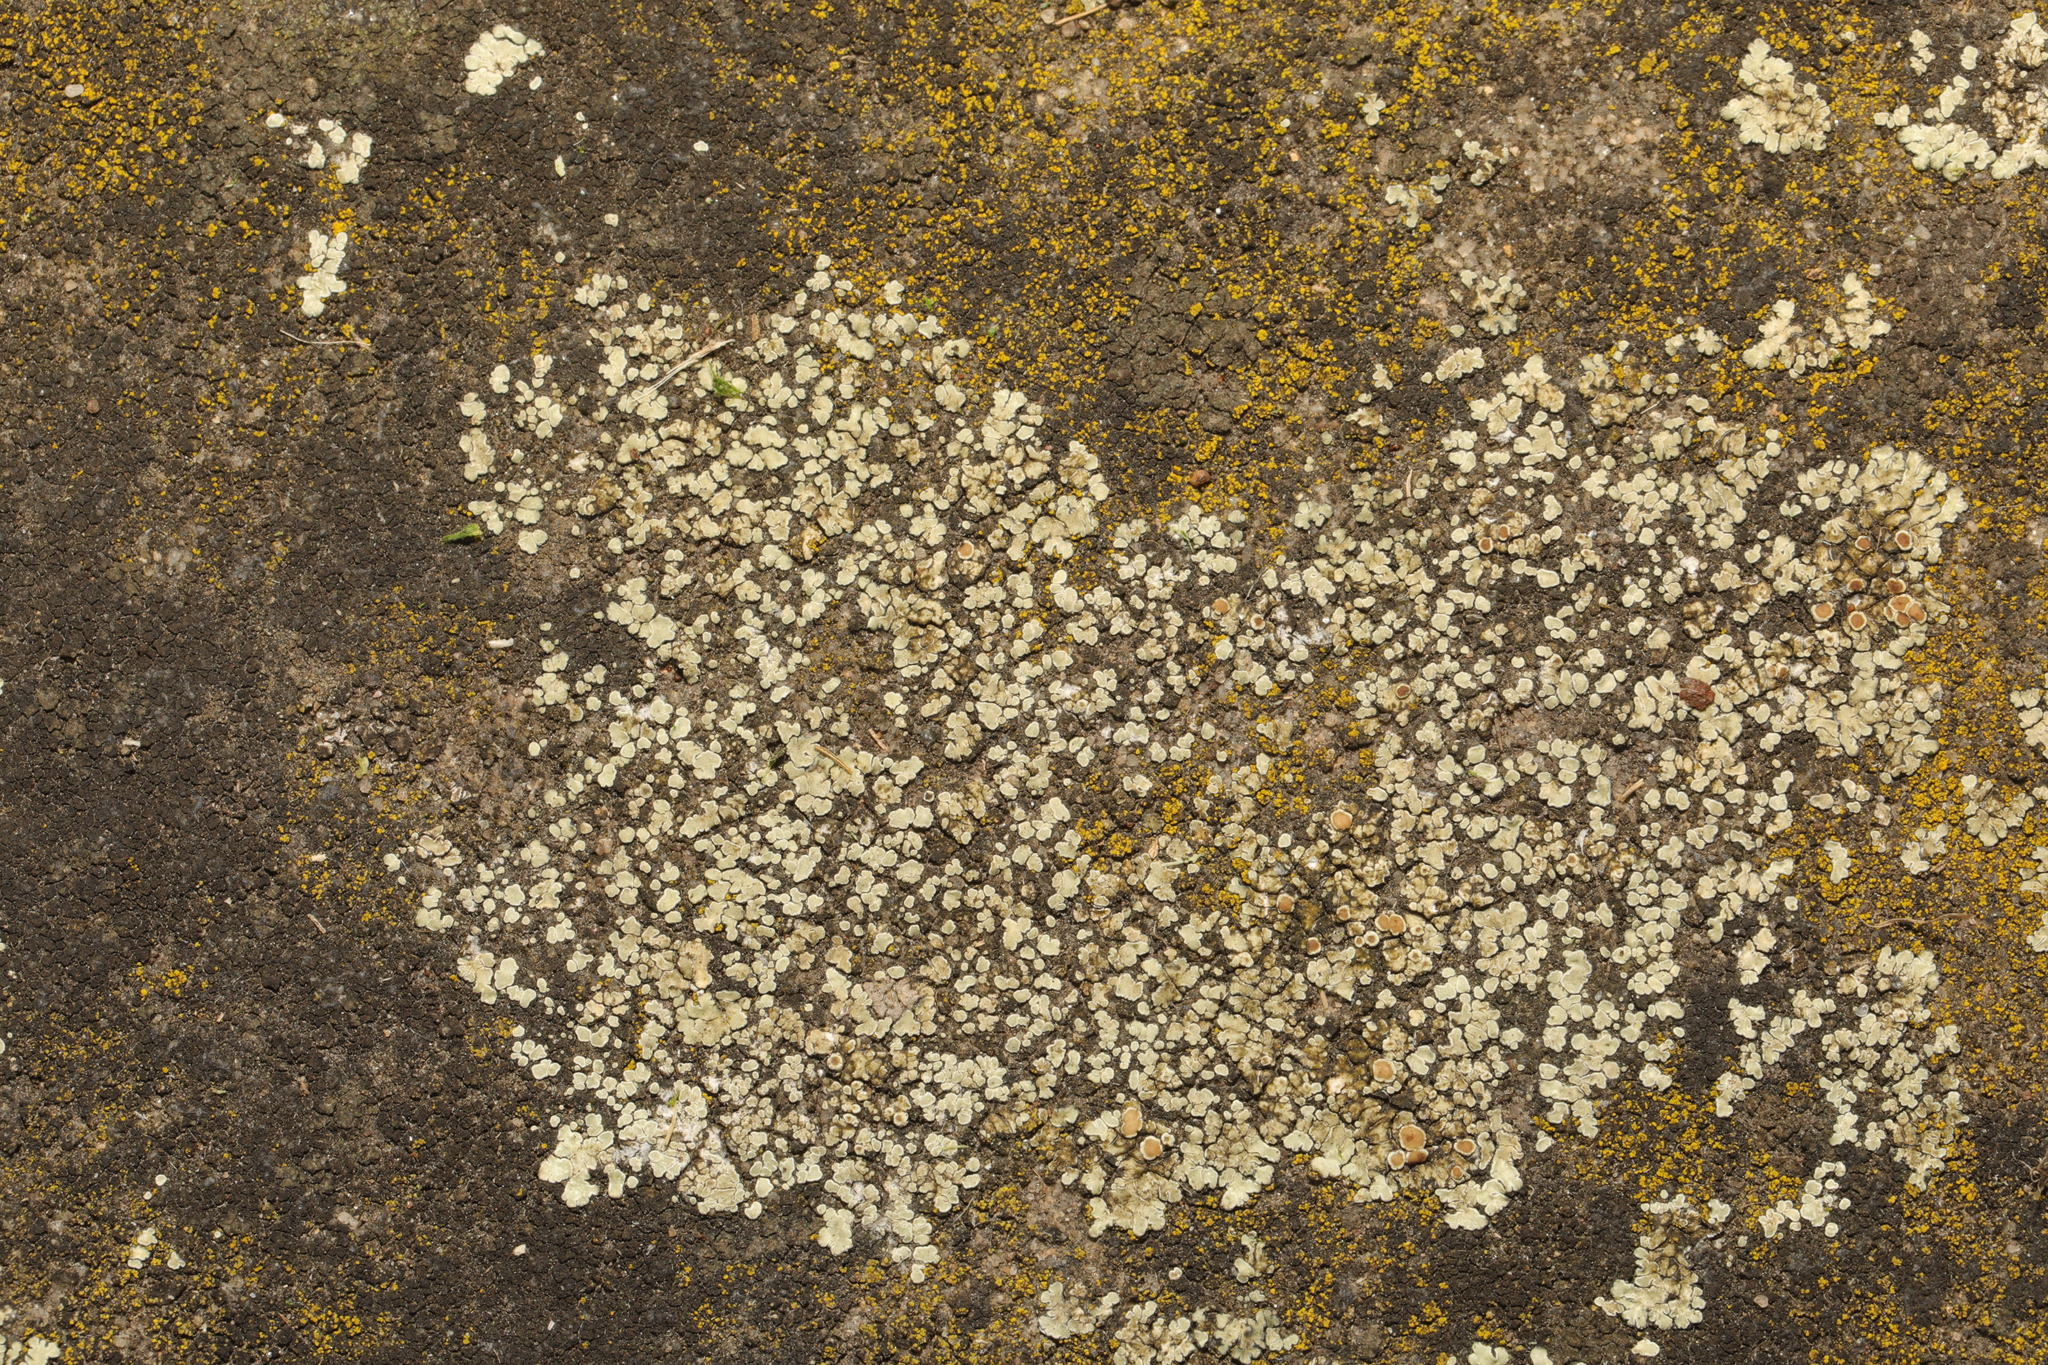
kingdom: Fungi
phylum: Ascomycota
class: Lecanoromycetes
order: Lecanorales
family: Lecanoraceae
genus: Protoparmeliopsis
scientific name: Protoparmeliopsis muralis
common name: Stonewall rim lichen
